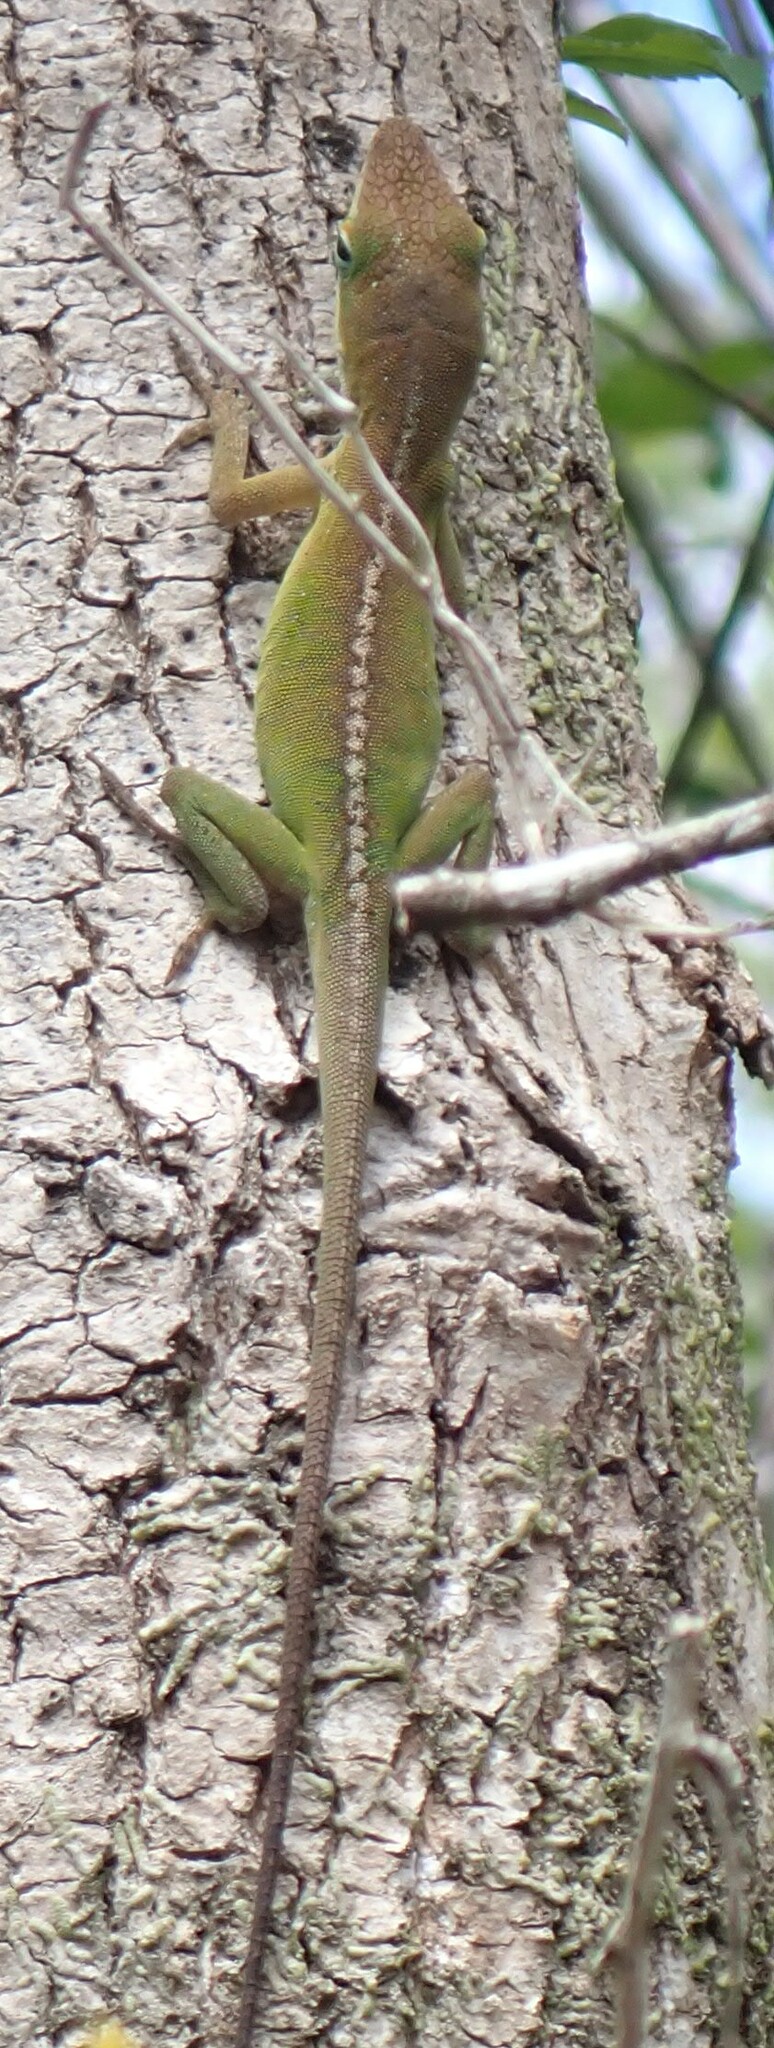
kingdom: Animalia
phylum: Chordata
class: Squamata
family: Dactyloidae
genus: Anolis
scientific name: Anolis carolinensis
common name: Green anole
